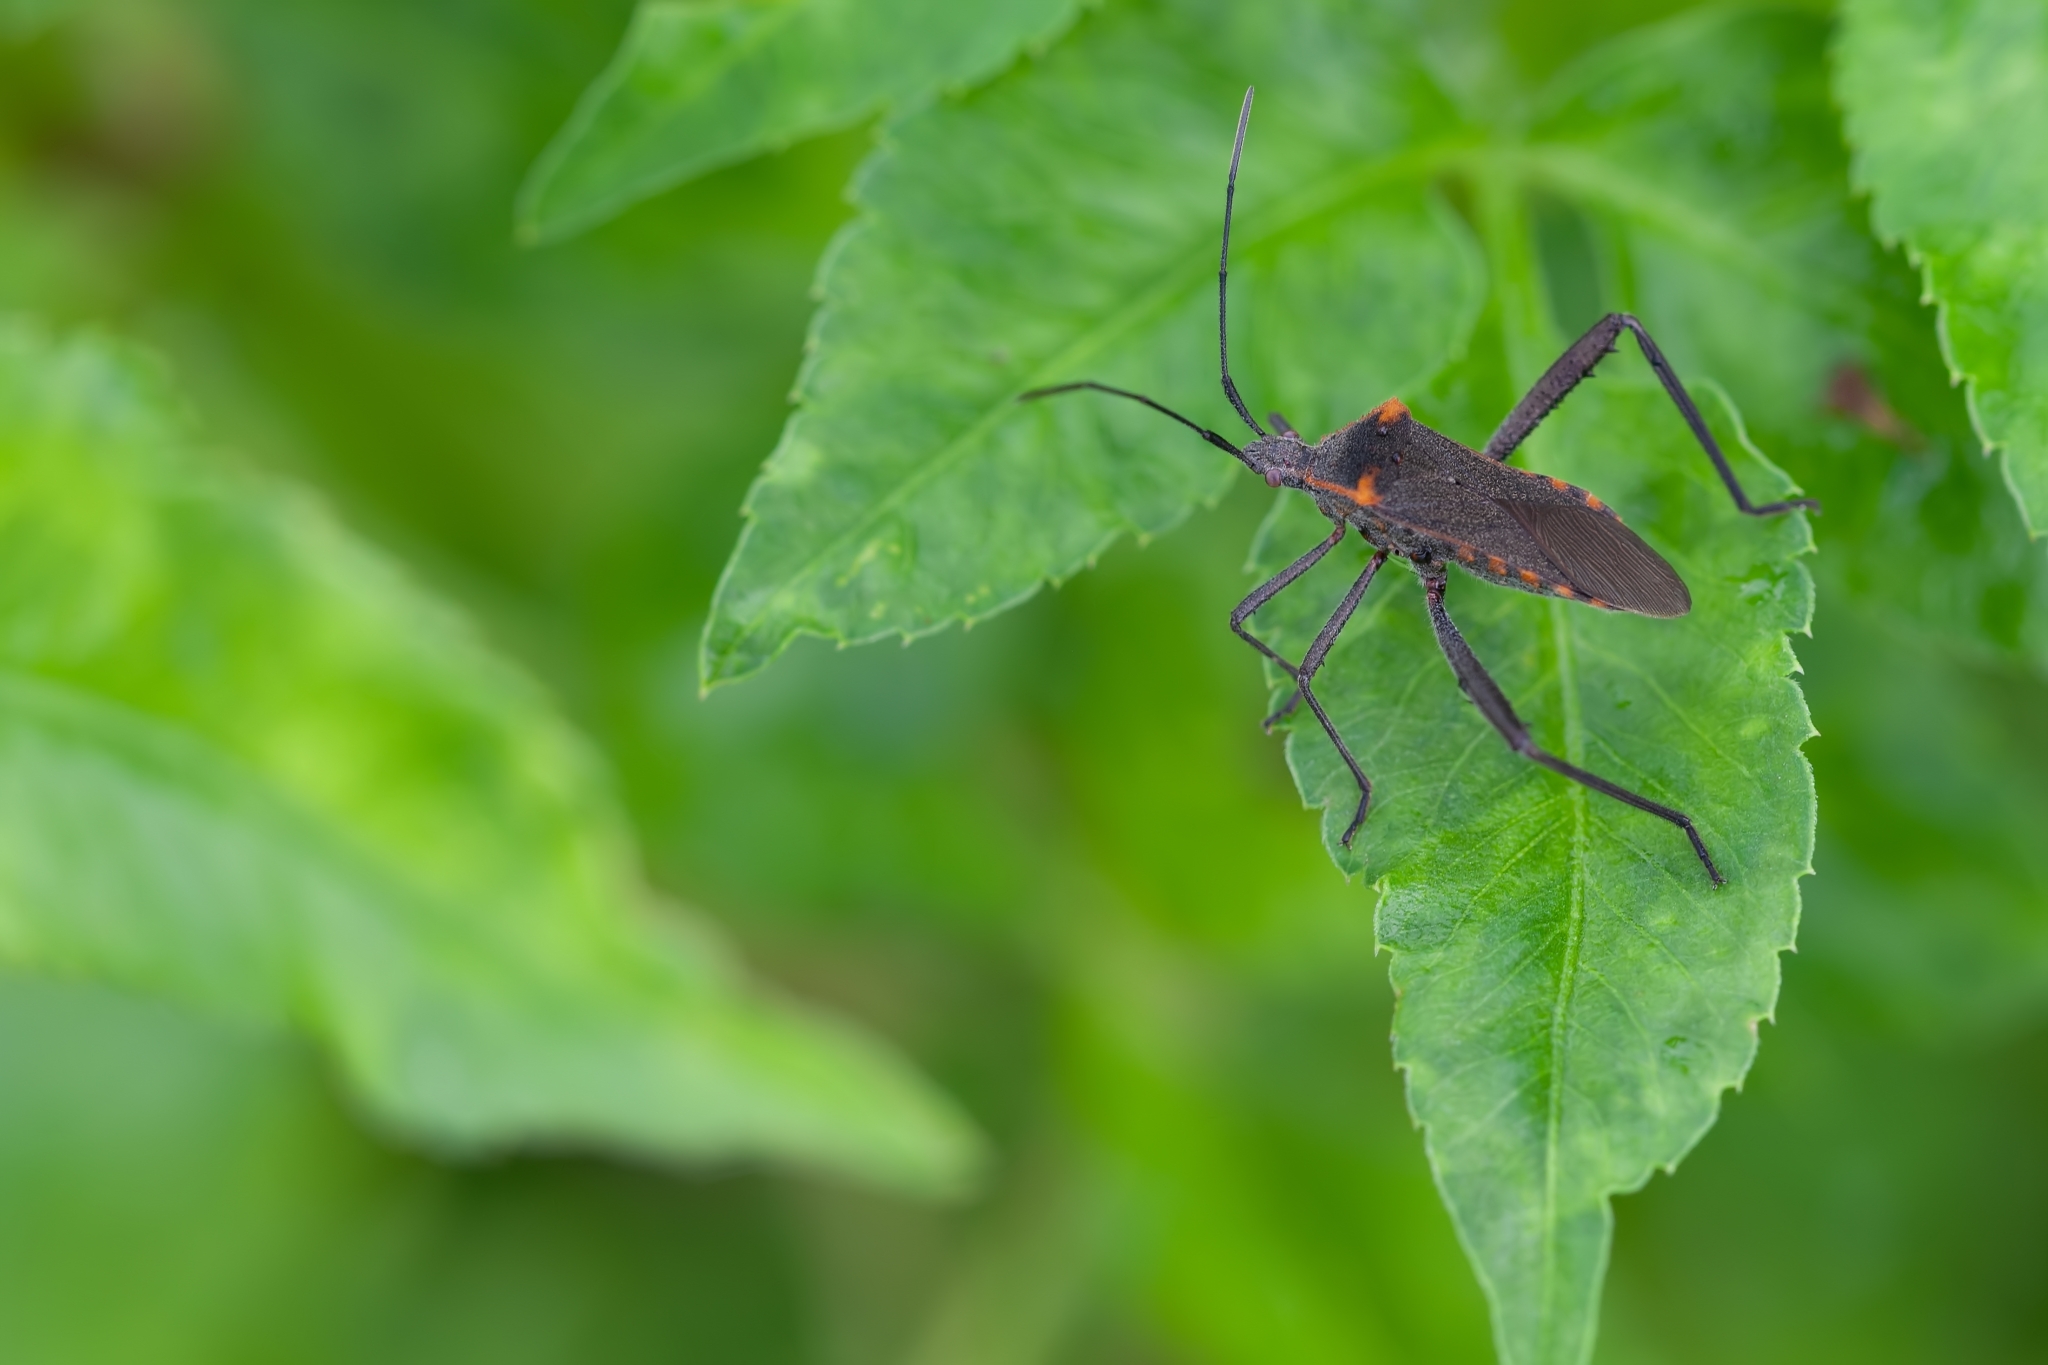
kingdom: Animalia
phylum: Arthropoda
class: Insecta
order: Hemiptera
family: Coreidae
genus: Phthiacnemia
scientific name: Phthiacnemia picta
